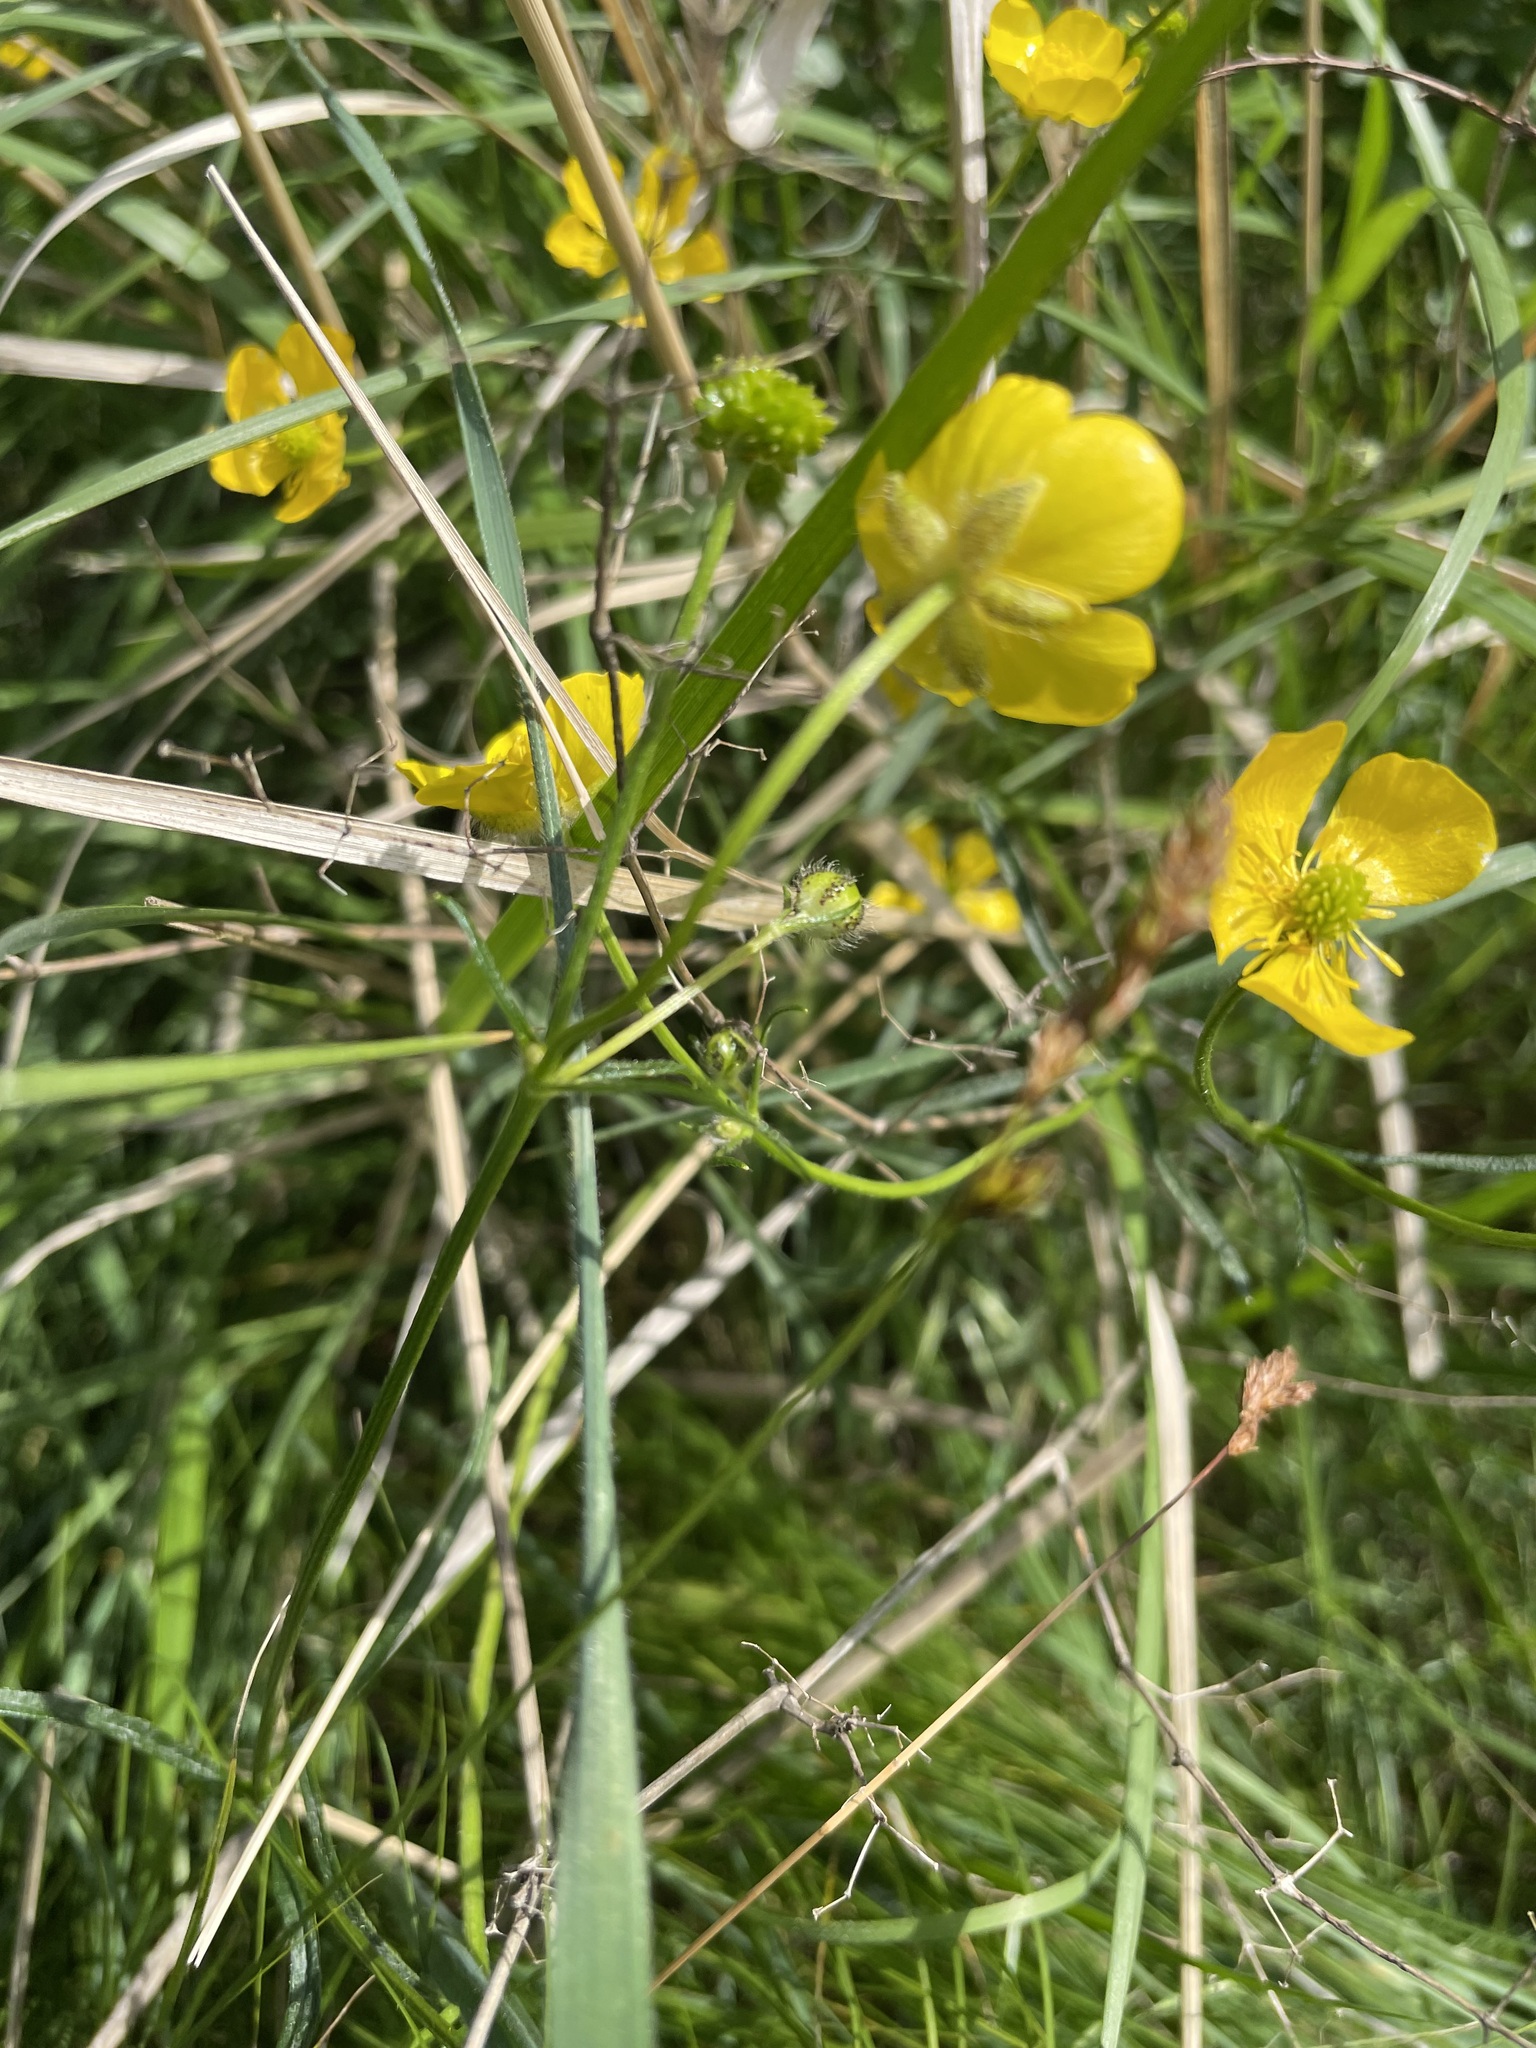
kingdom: Plantae
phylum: Tracheophyta
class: Magnoliopsida
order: Ranunculales
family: Ranunculaceae
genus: Ranunculus
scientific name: Ranunculus polyanthemos
